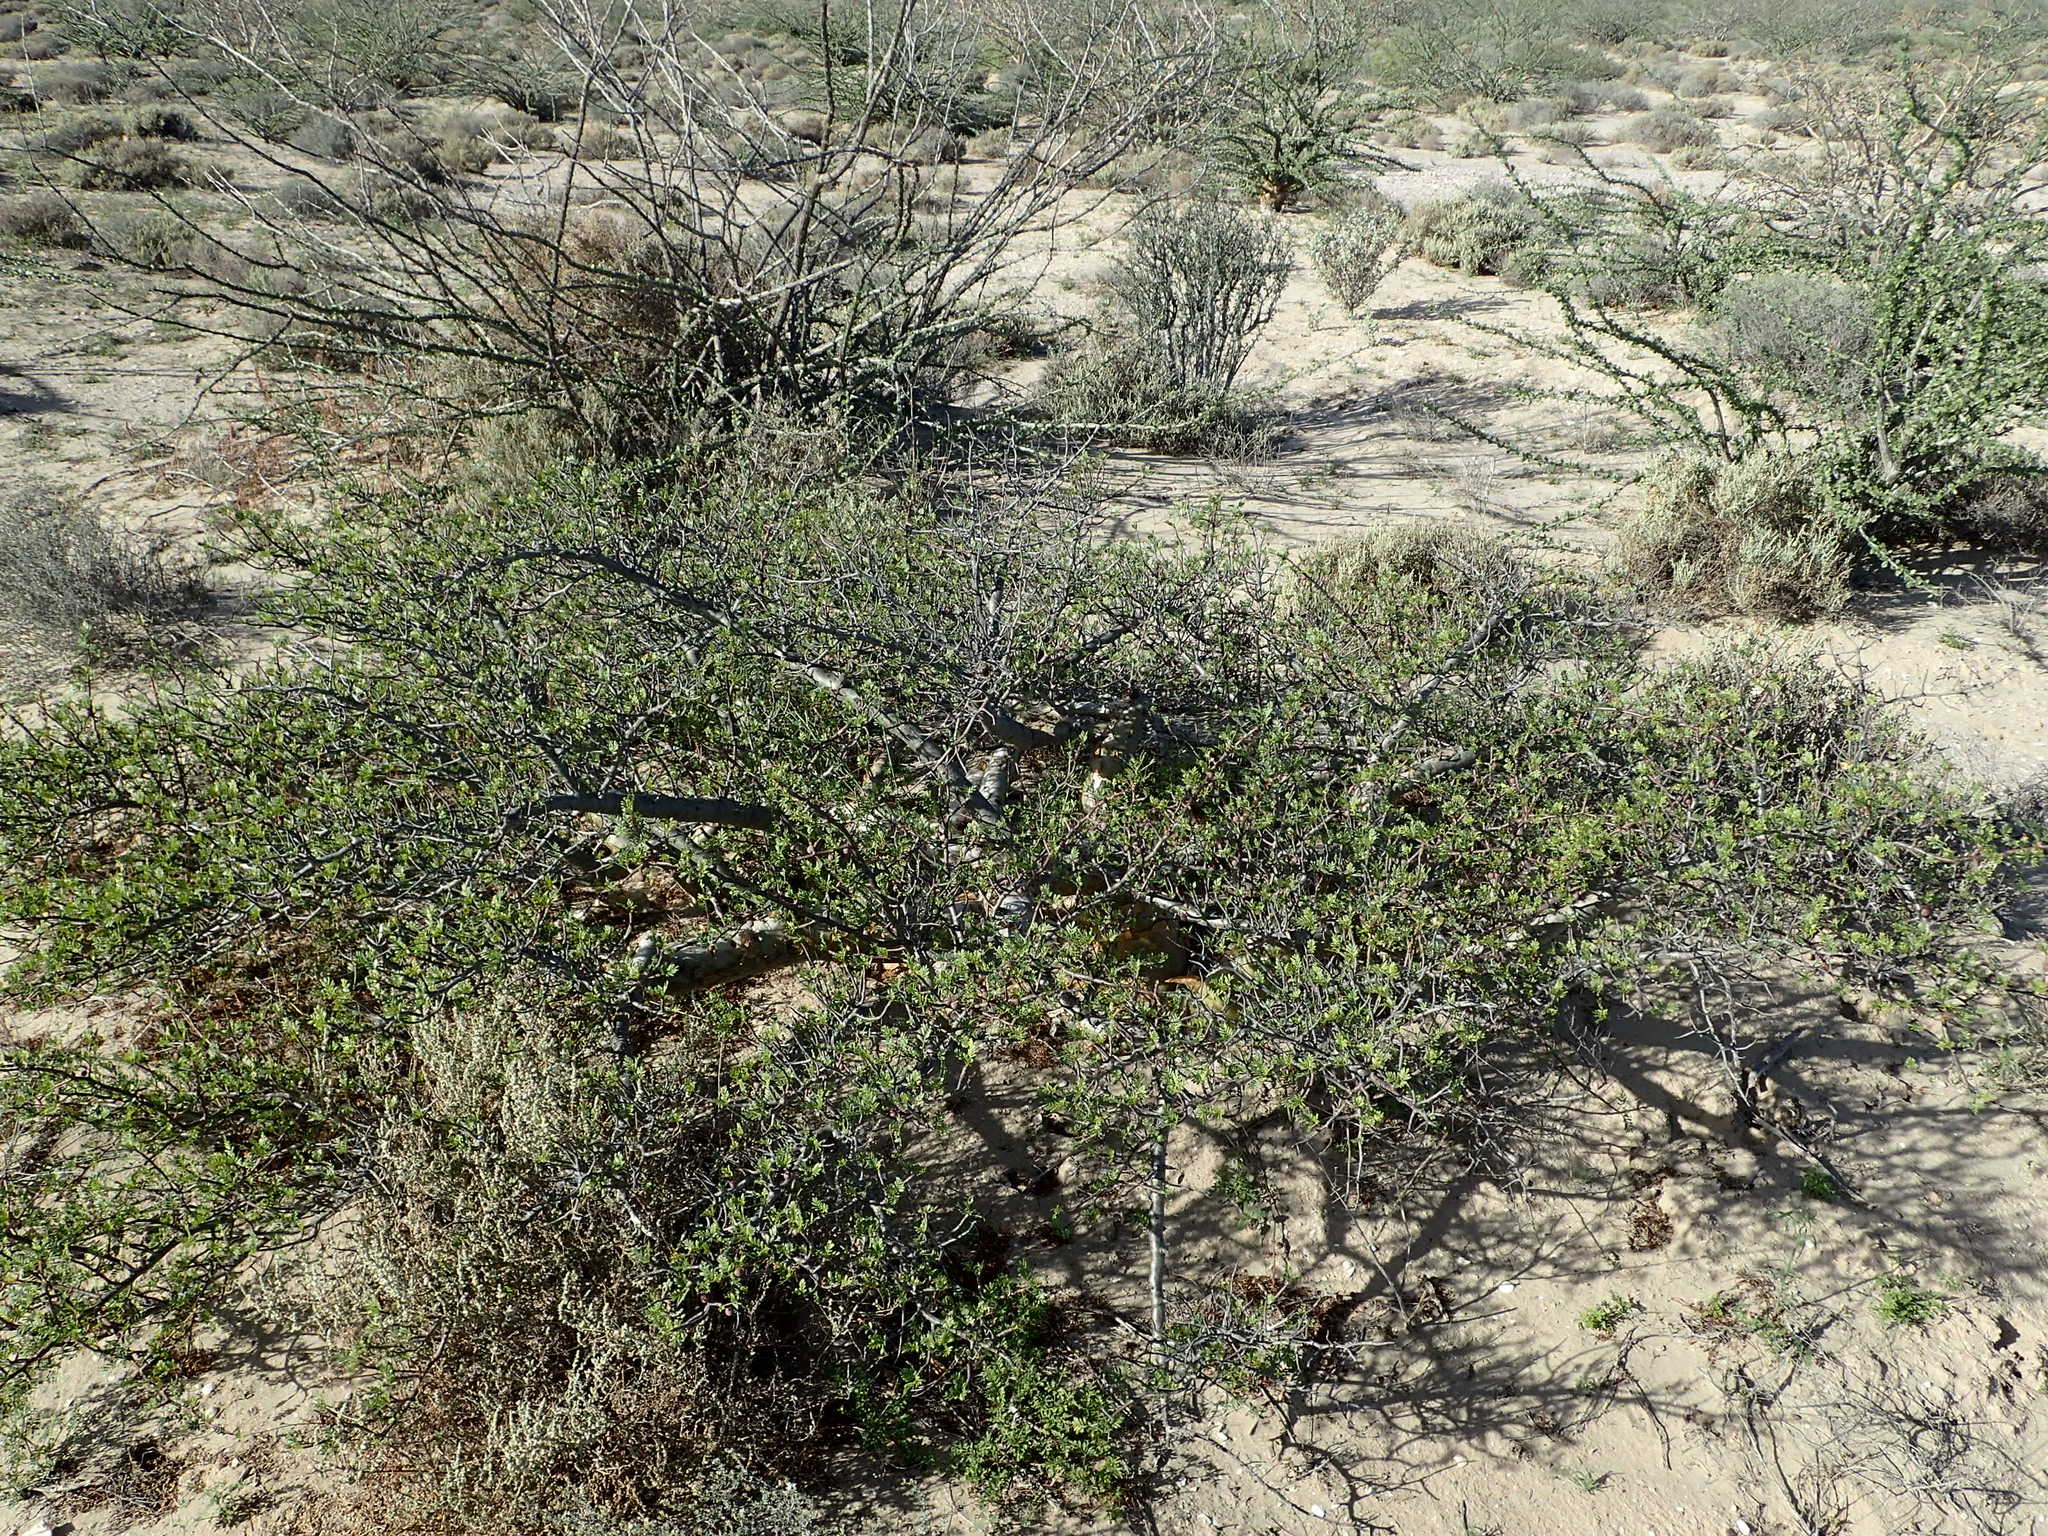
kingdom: Plantae
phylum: Tracheophyta
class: Magnoliopsida
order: Sapindales
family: Burseraceae
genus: Bursera
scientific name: Bursera microphylla
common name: Elephant tree
